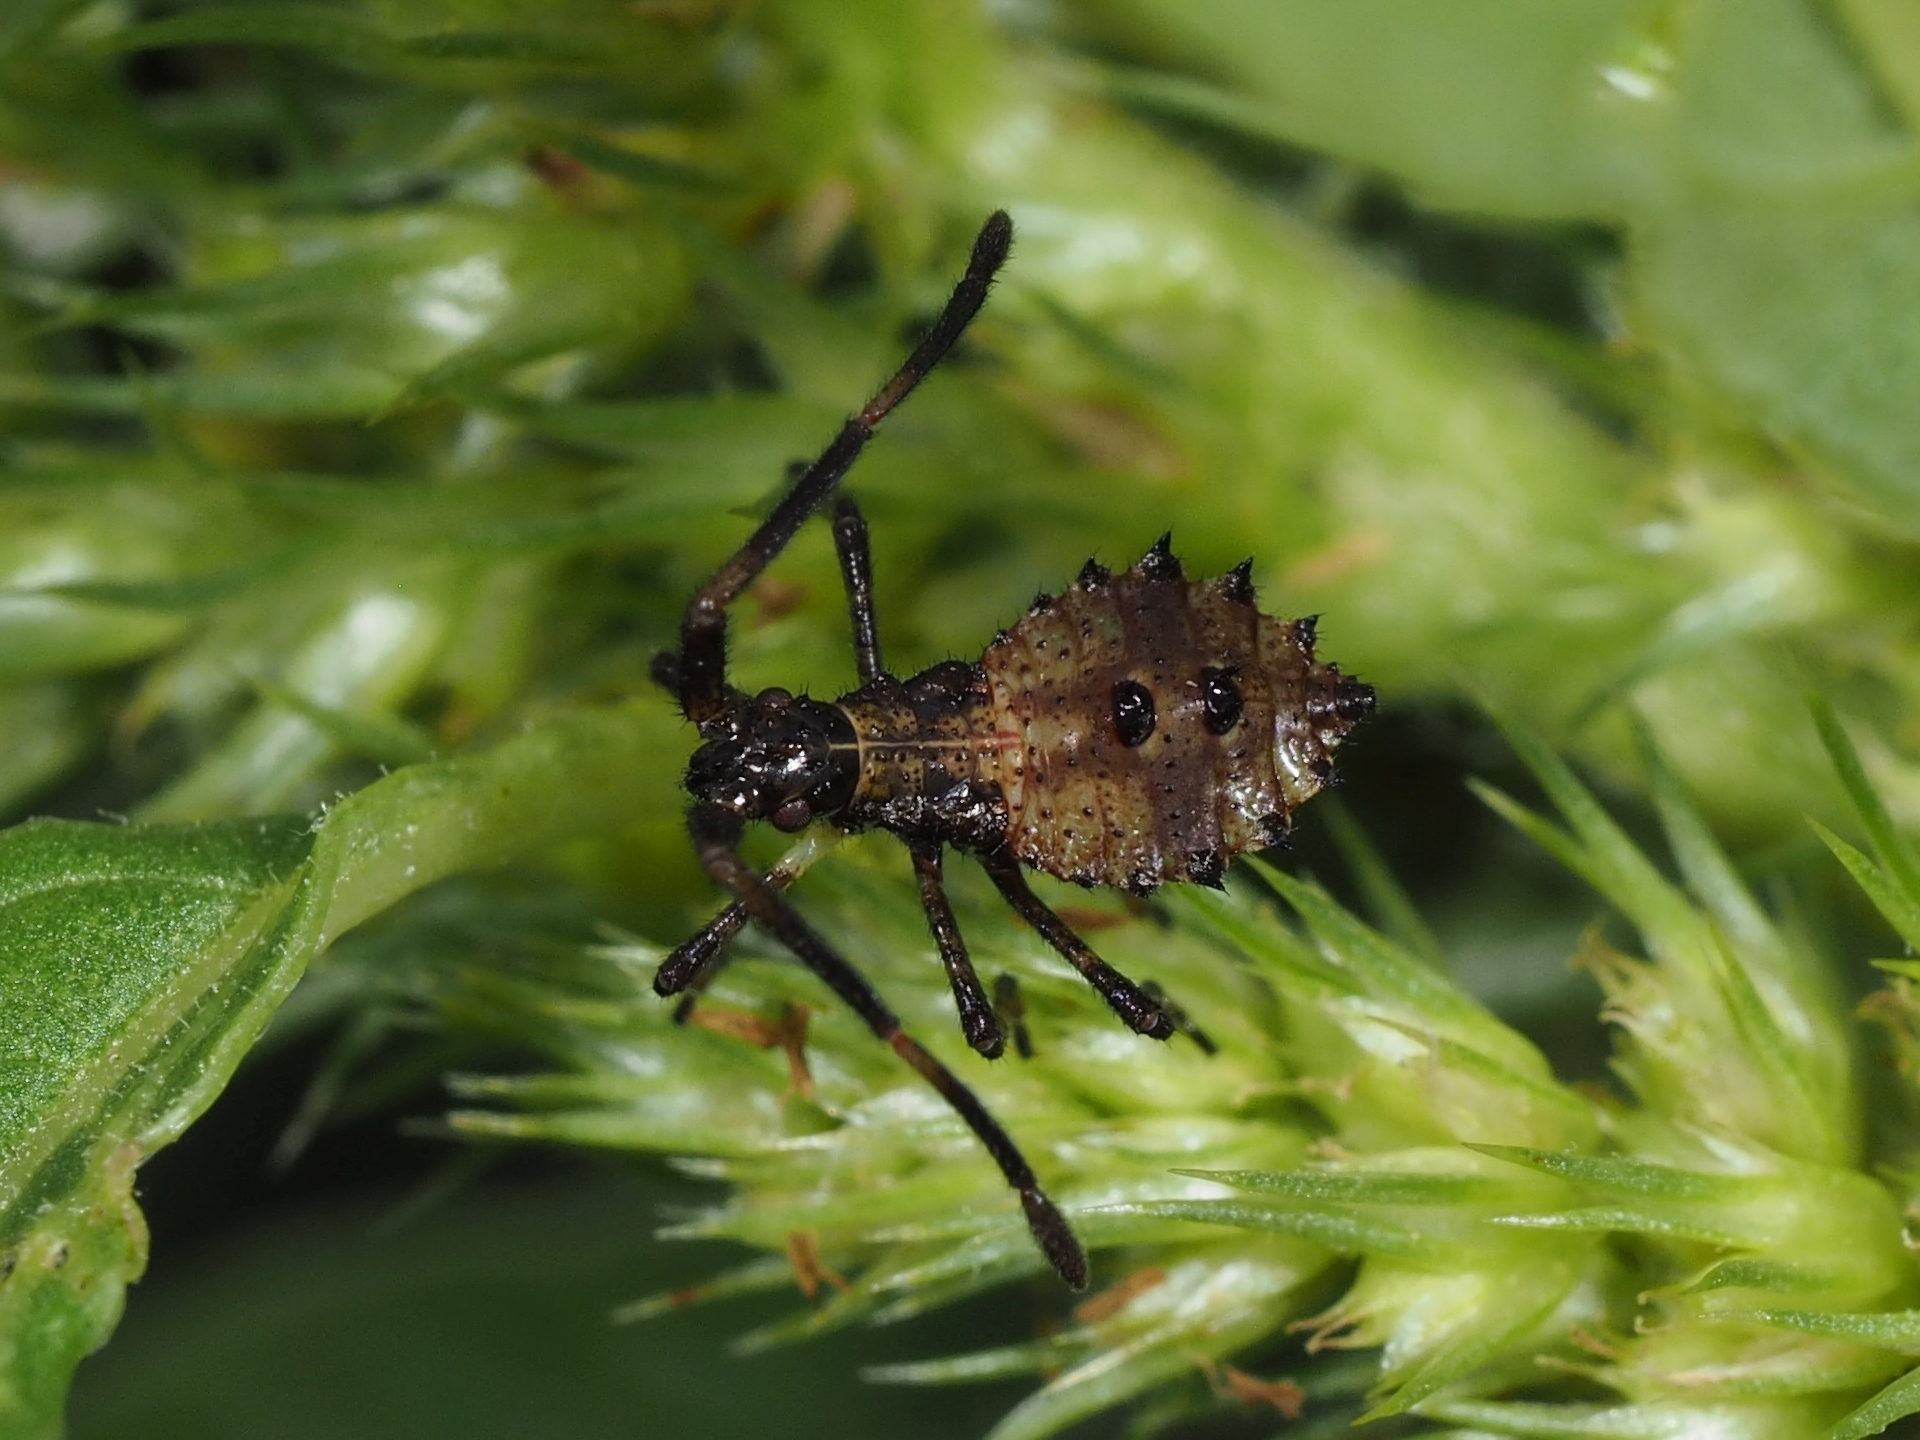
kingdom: Animalia
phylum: Arthropoda
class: Insecta
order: Hemiptera
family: Coreidae
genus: Coreus
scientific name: Coreus marginatus
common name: Dock bug
